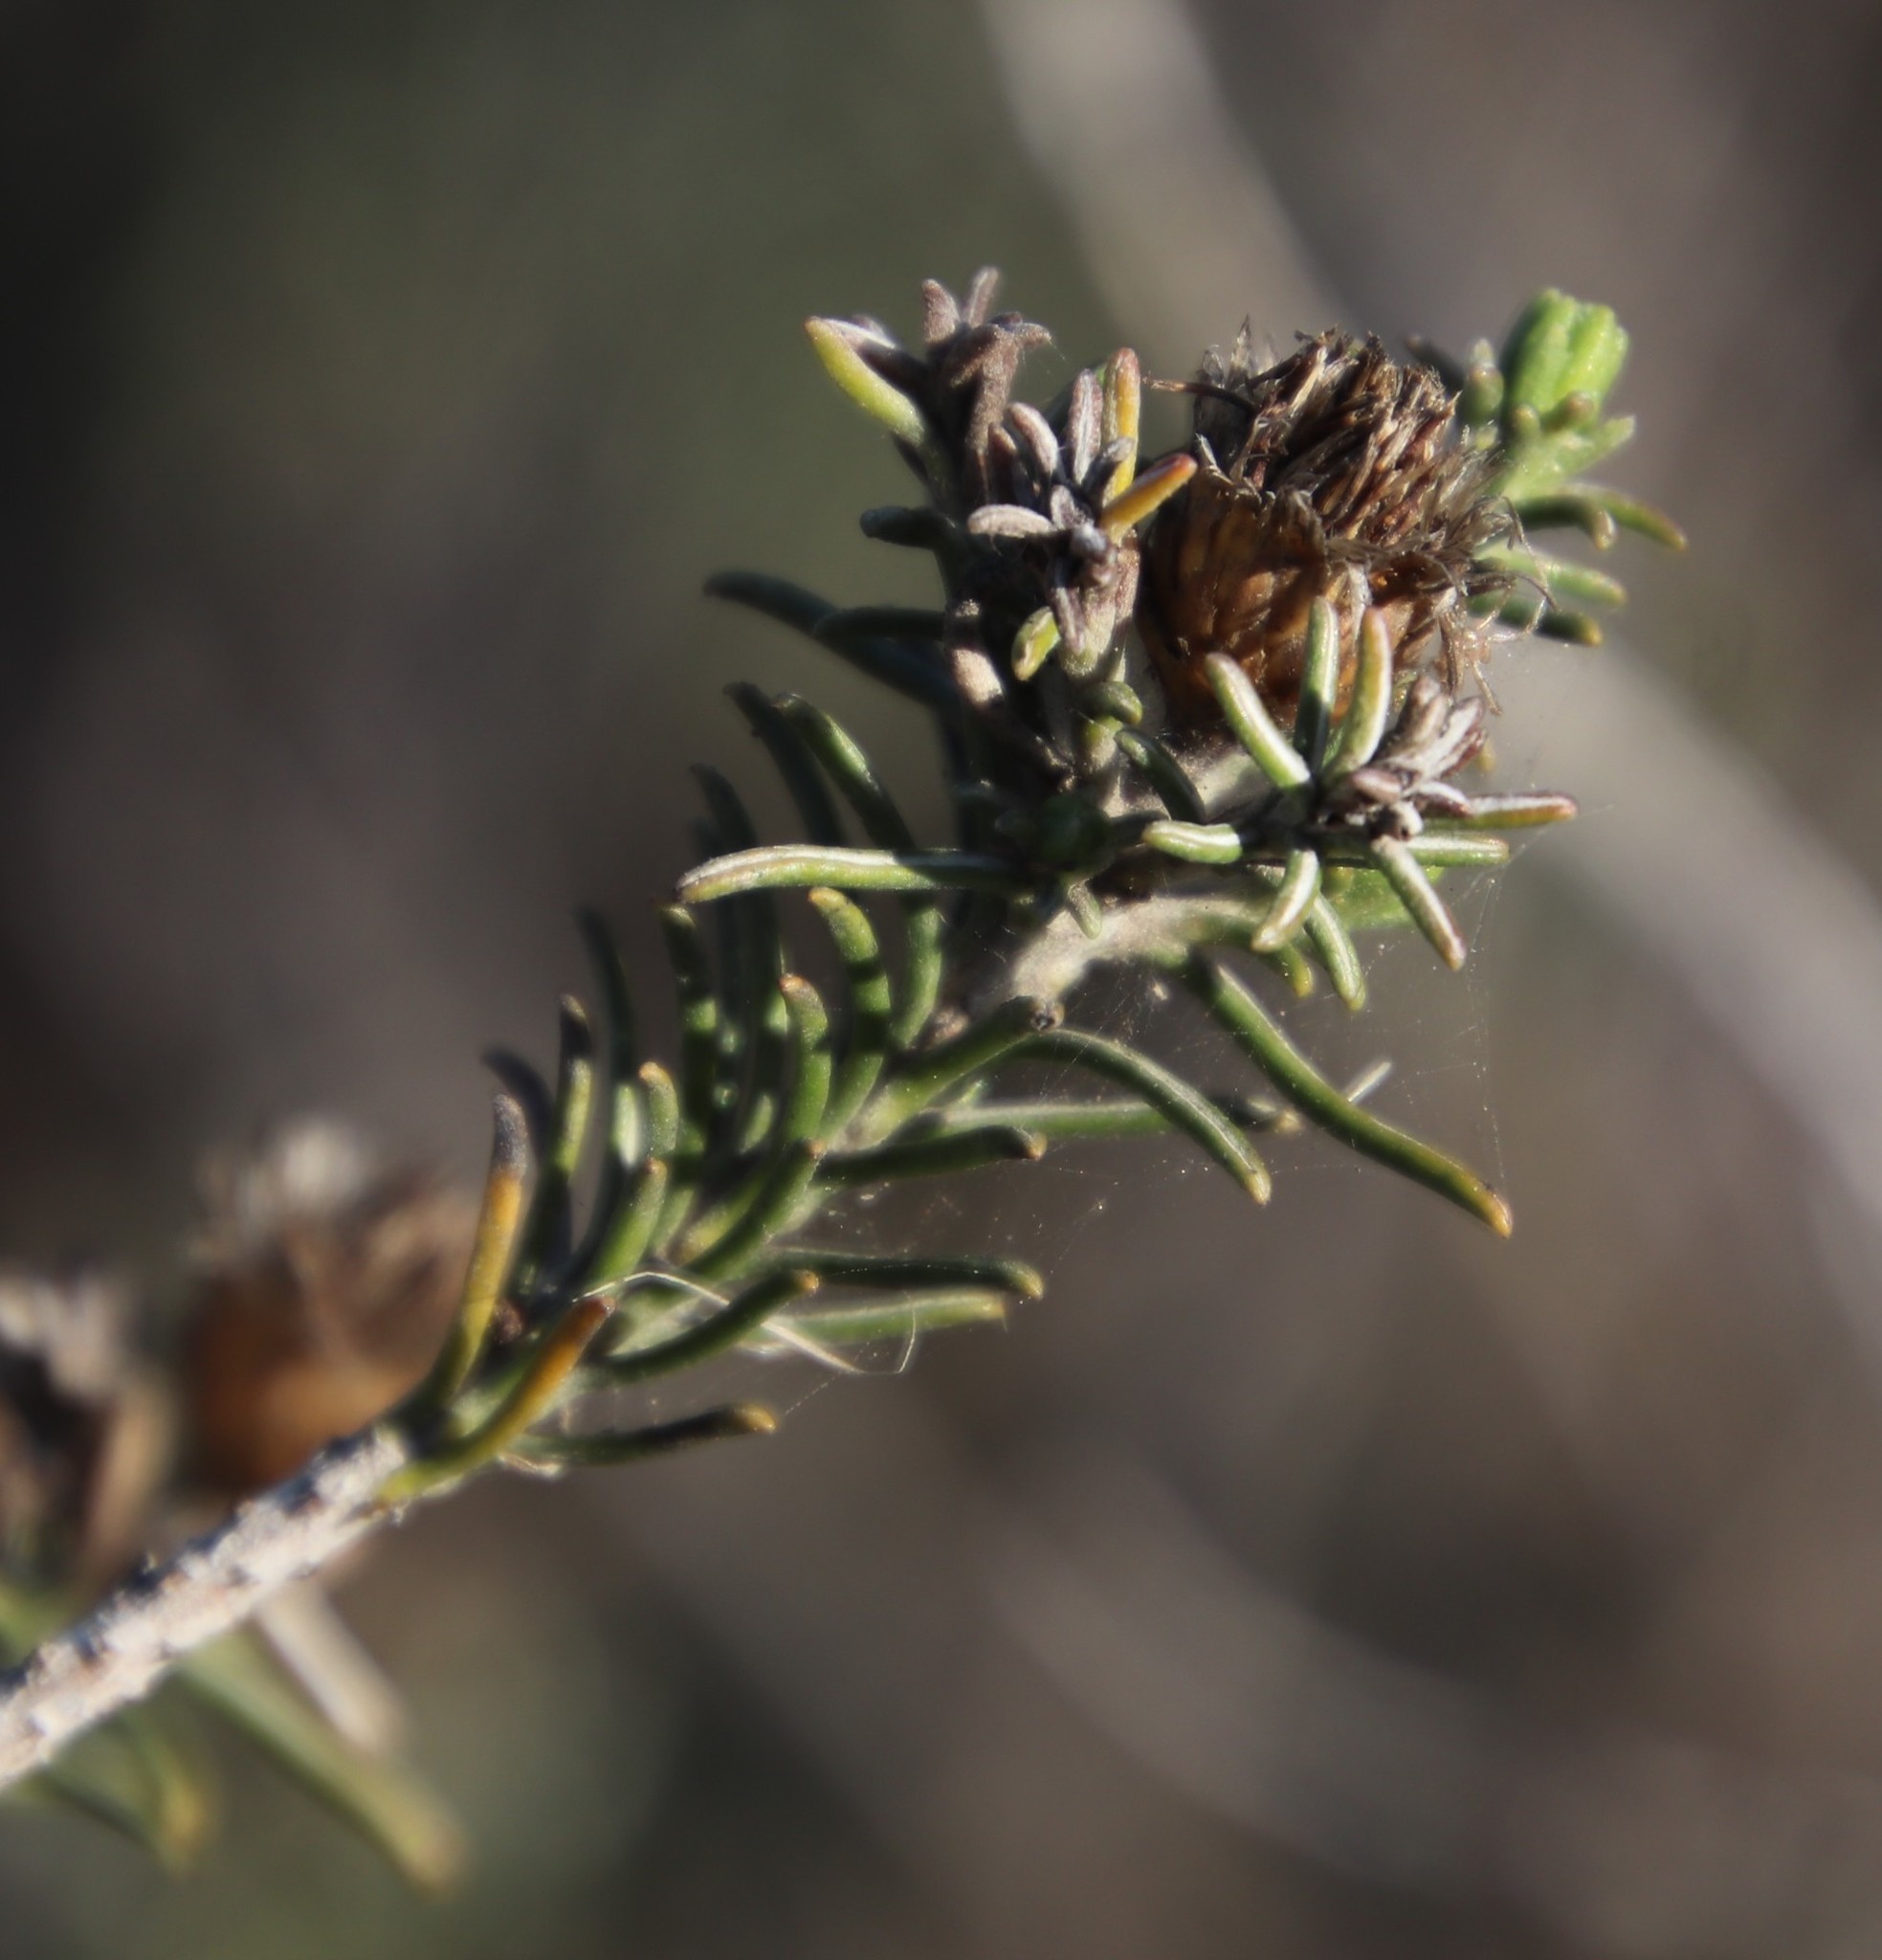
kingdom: Plantae
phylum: Tracheophyta
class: Magnoliopsida
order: Asterales
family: Asteraceae
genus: Oedera
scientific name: Oedera fruticosa
